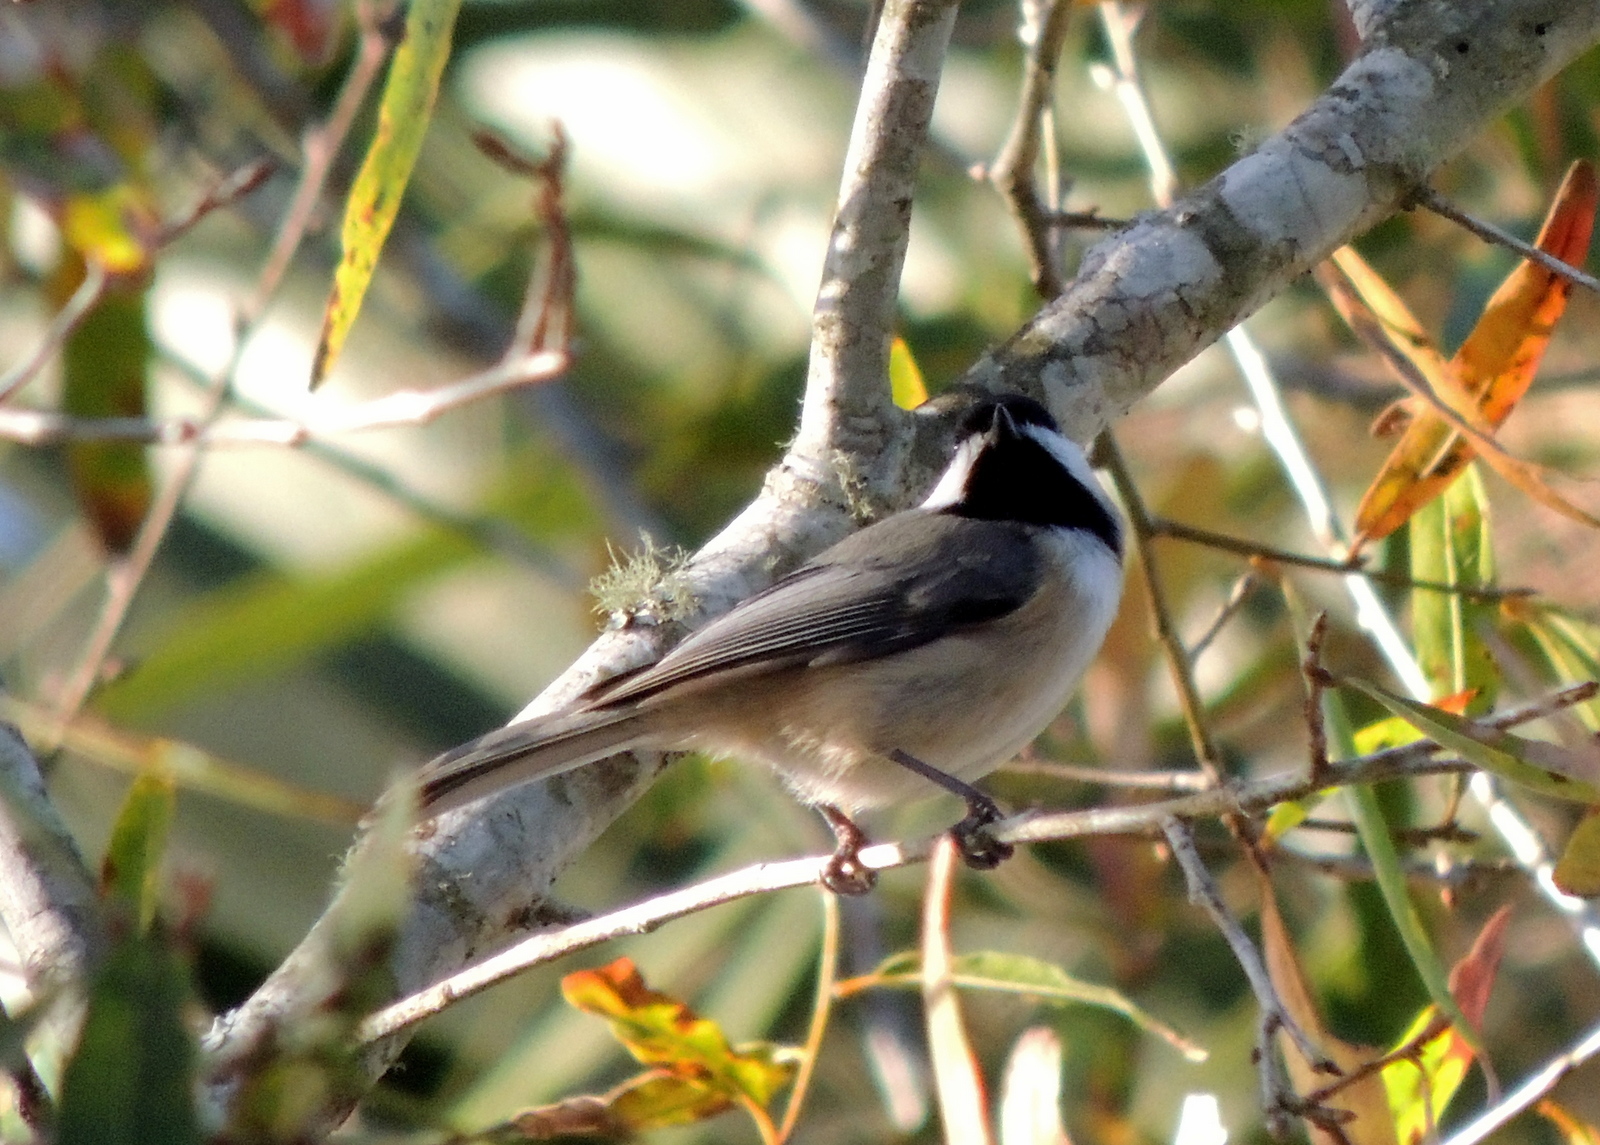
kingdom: Animalia
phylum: Chordata
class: Aves
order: Passeriformes
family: Paridae
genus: Poecile
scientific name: Poecile carolinensis
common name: Carolina chickadee
